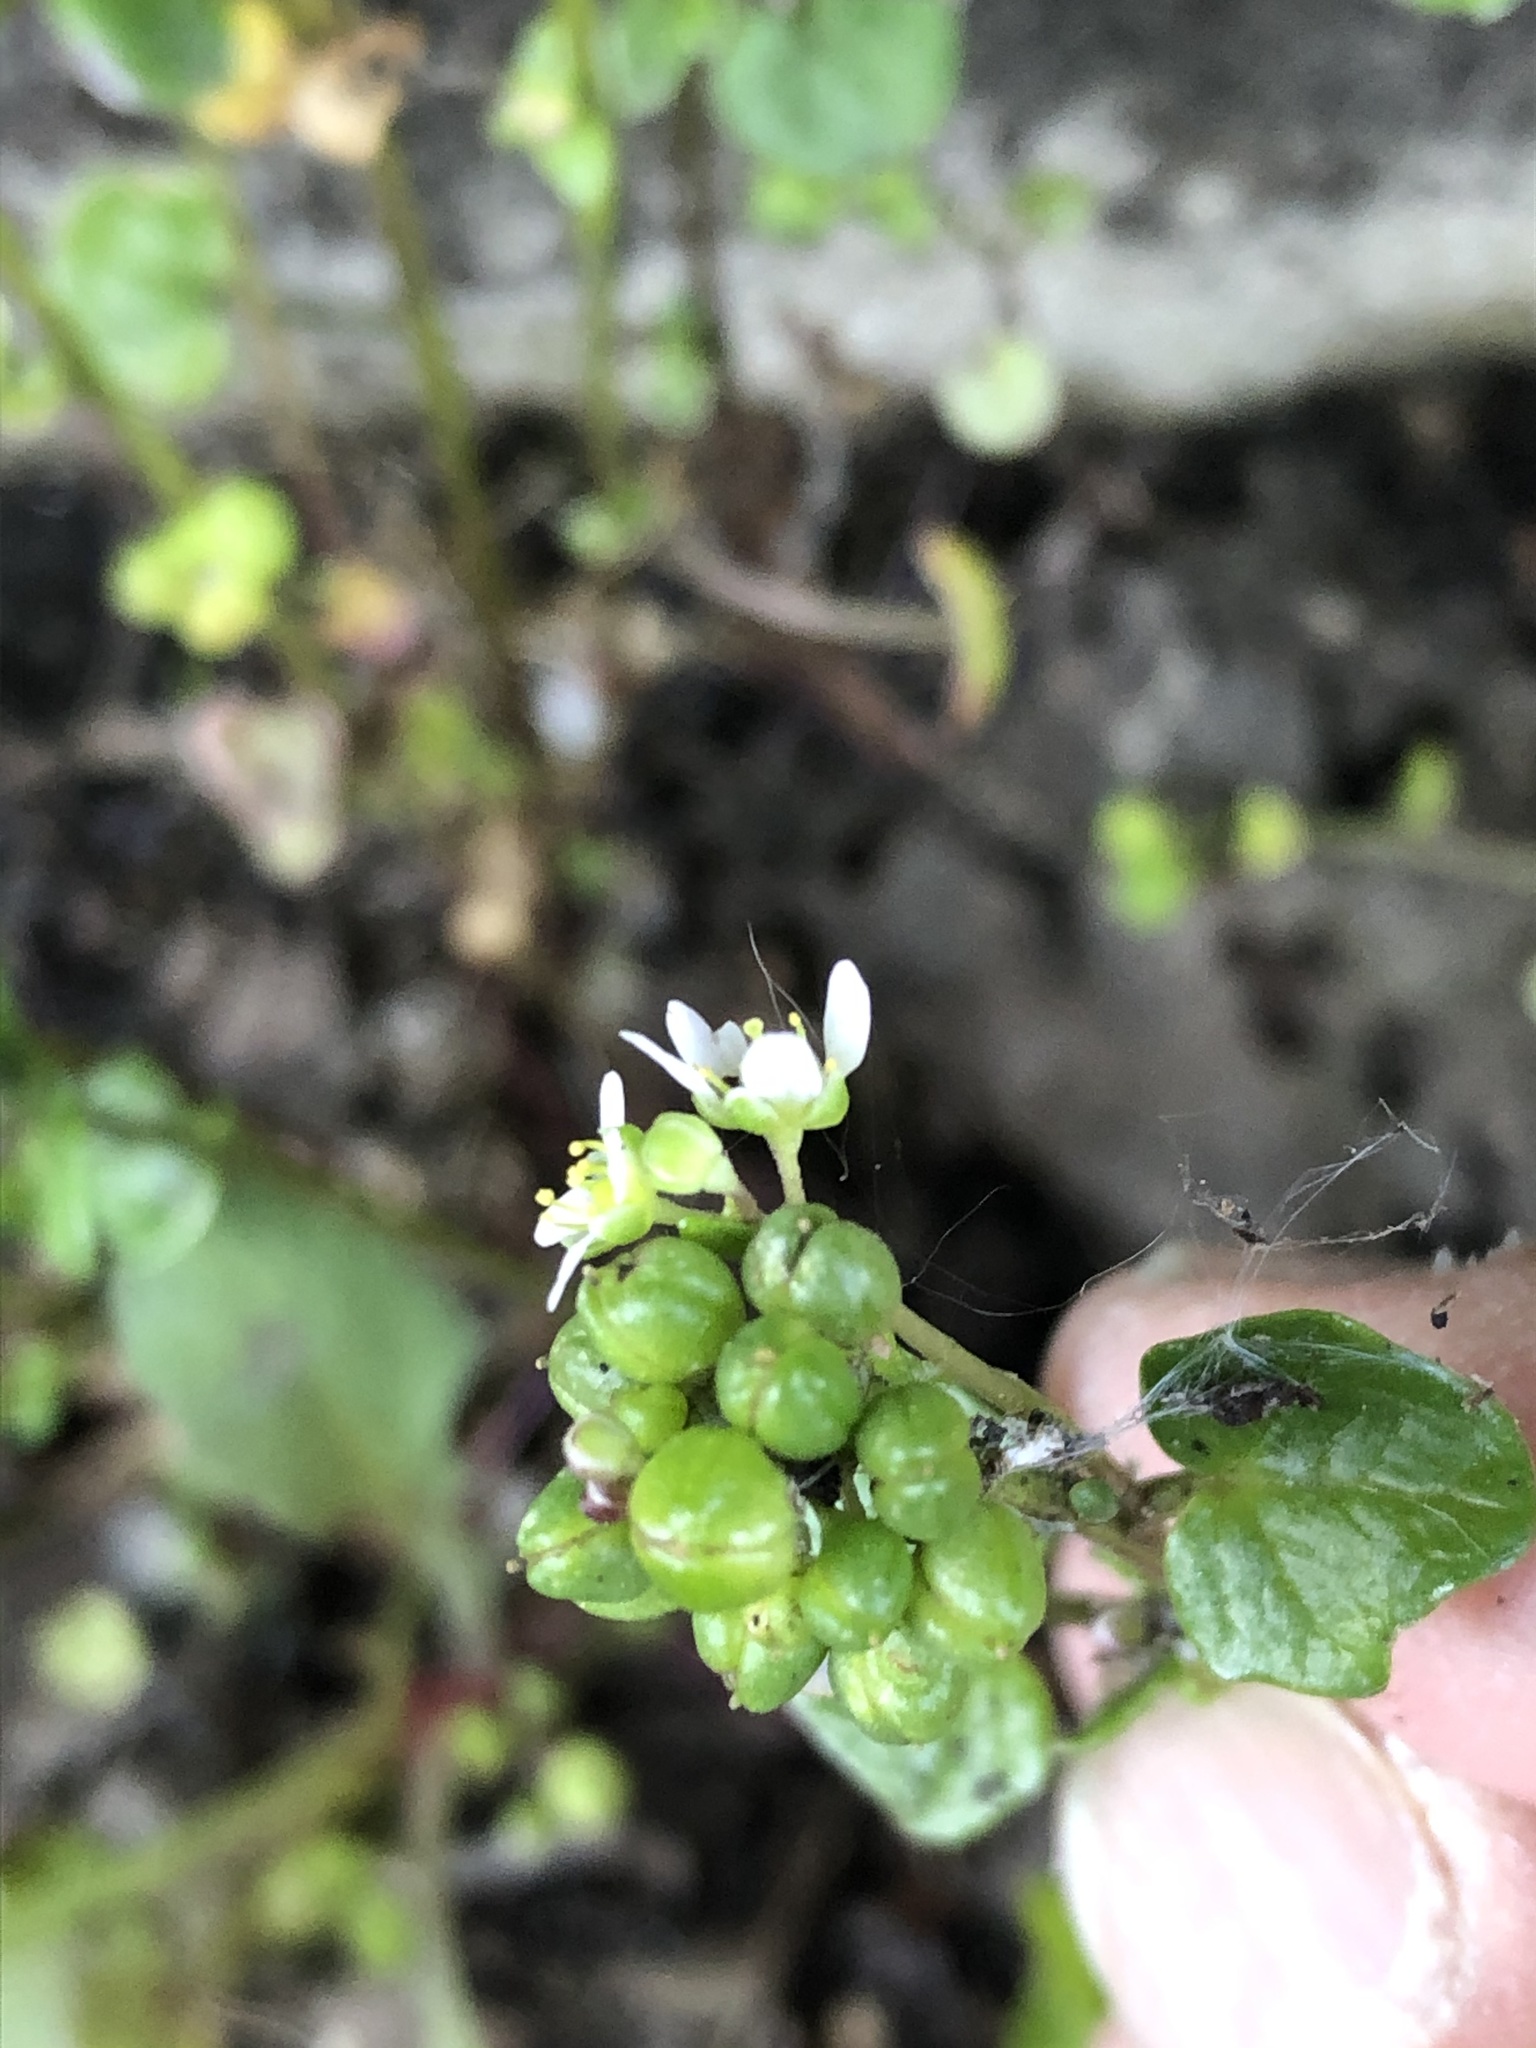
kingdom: Plantae
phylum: Tracheophyta
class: Magnoliopsida
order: Brassicales
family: Brassicaceae
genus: Cochlearia
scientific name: Cochlearia danica
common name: Early scurvygrass
